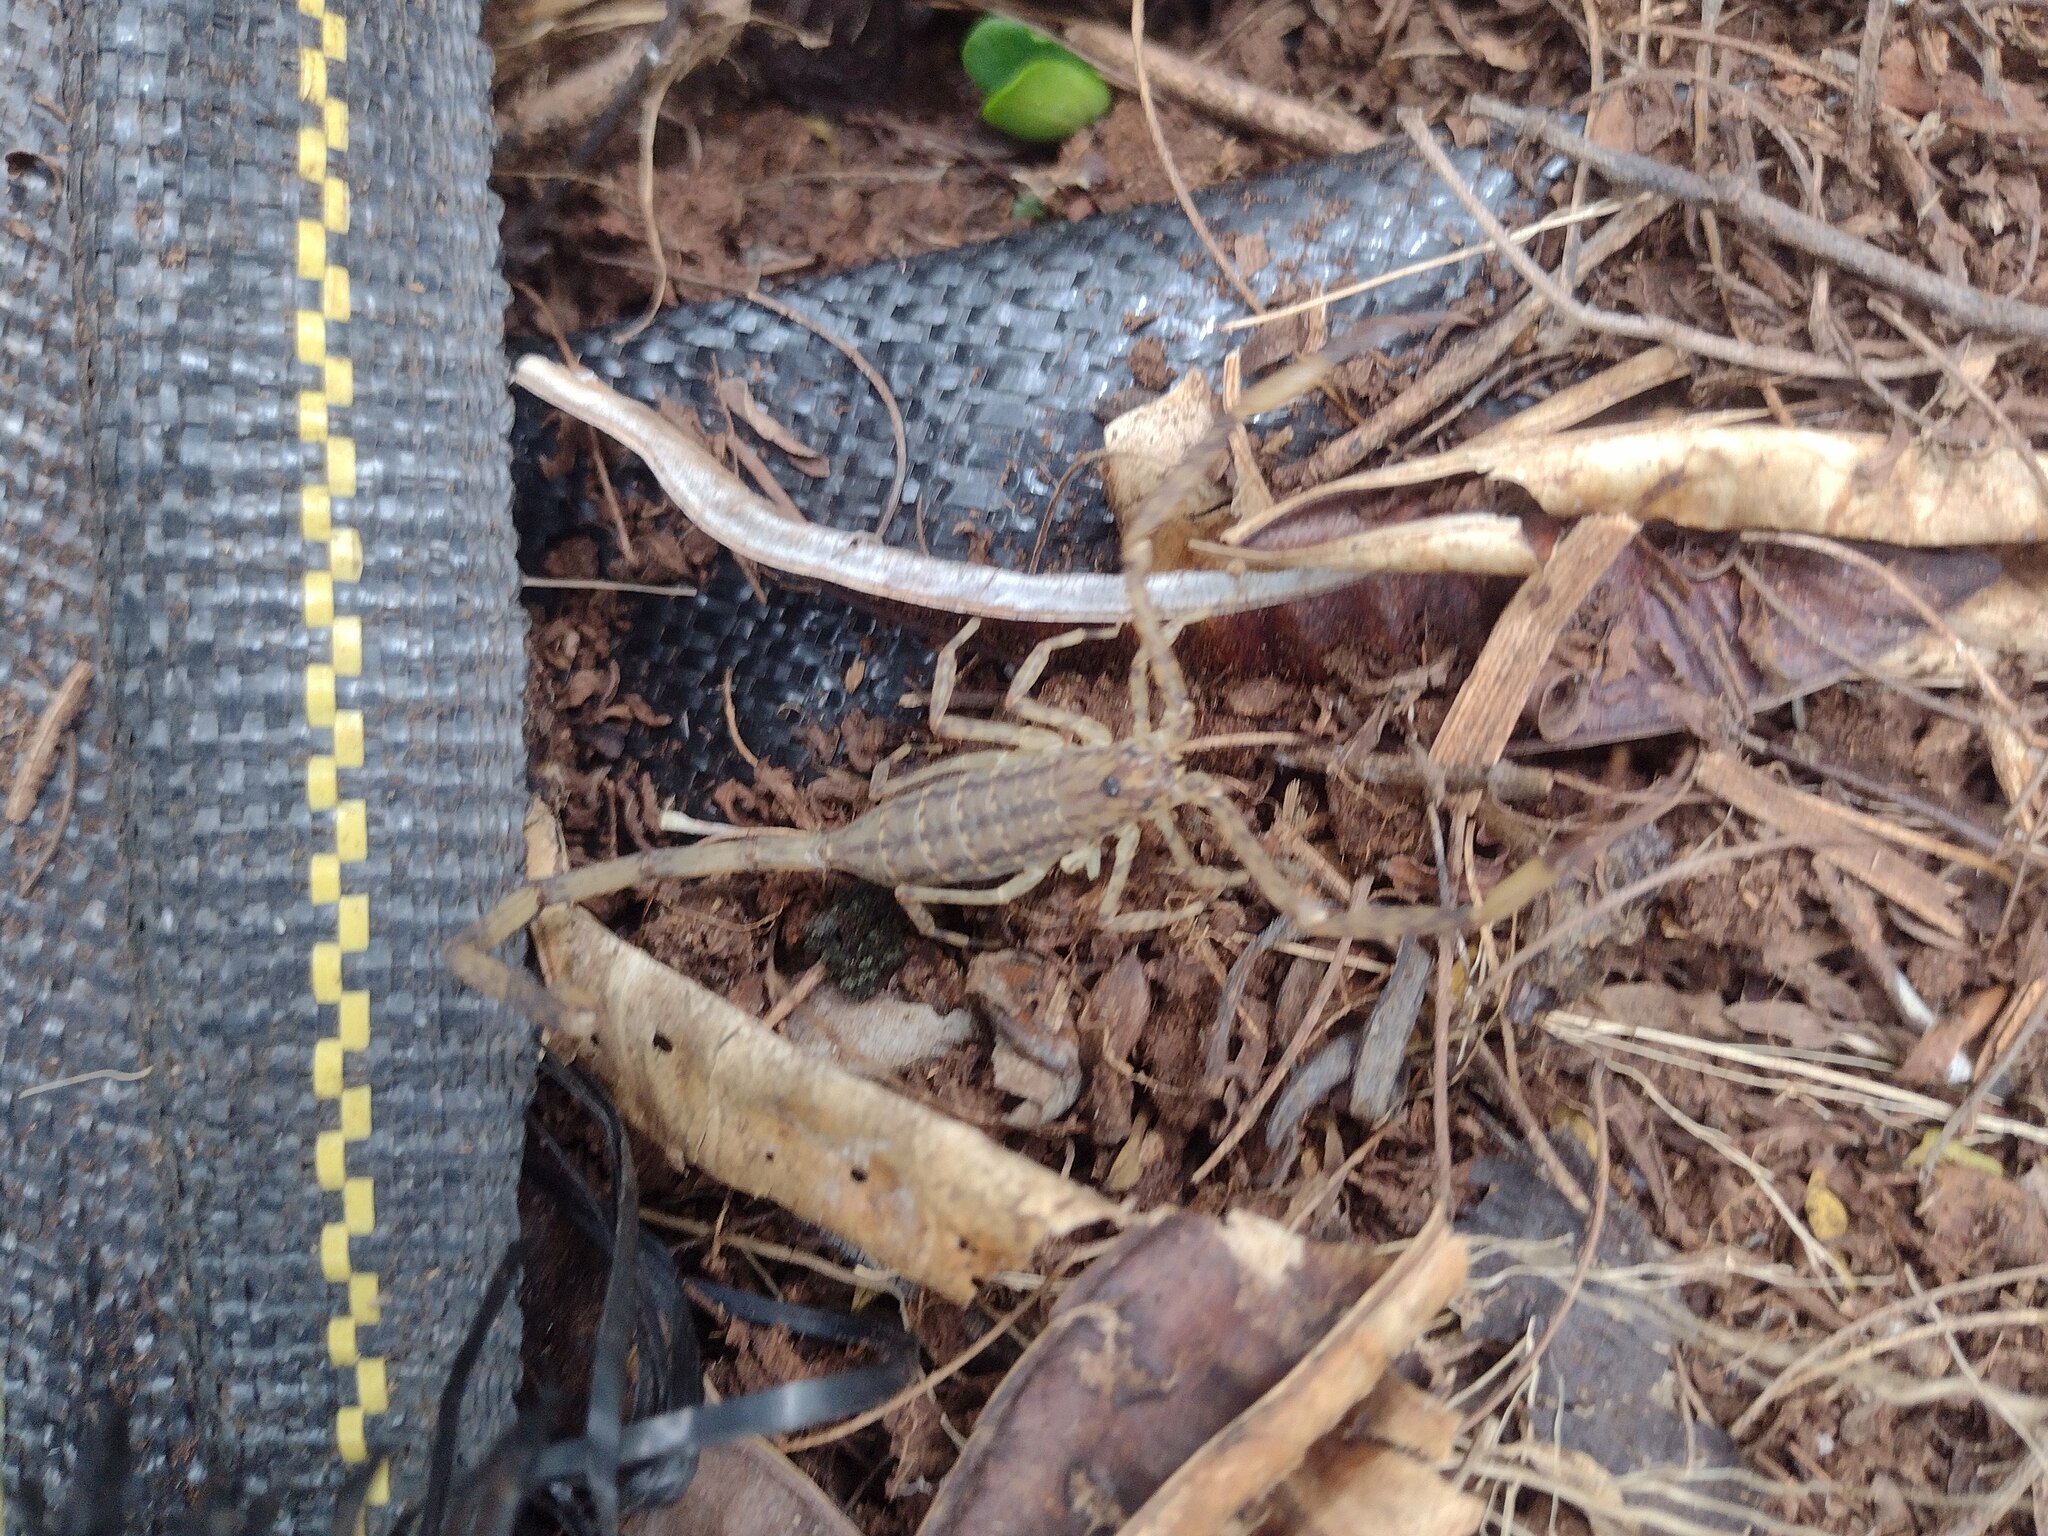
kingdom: Animalia
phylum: Arthropoda
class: Arachnida
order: Scorpiones
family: Buthidae
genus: Isometrus
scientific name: Isometrus maculatus
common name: Scorpions
